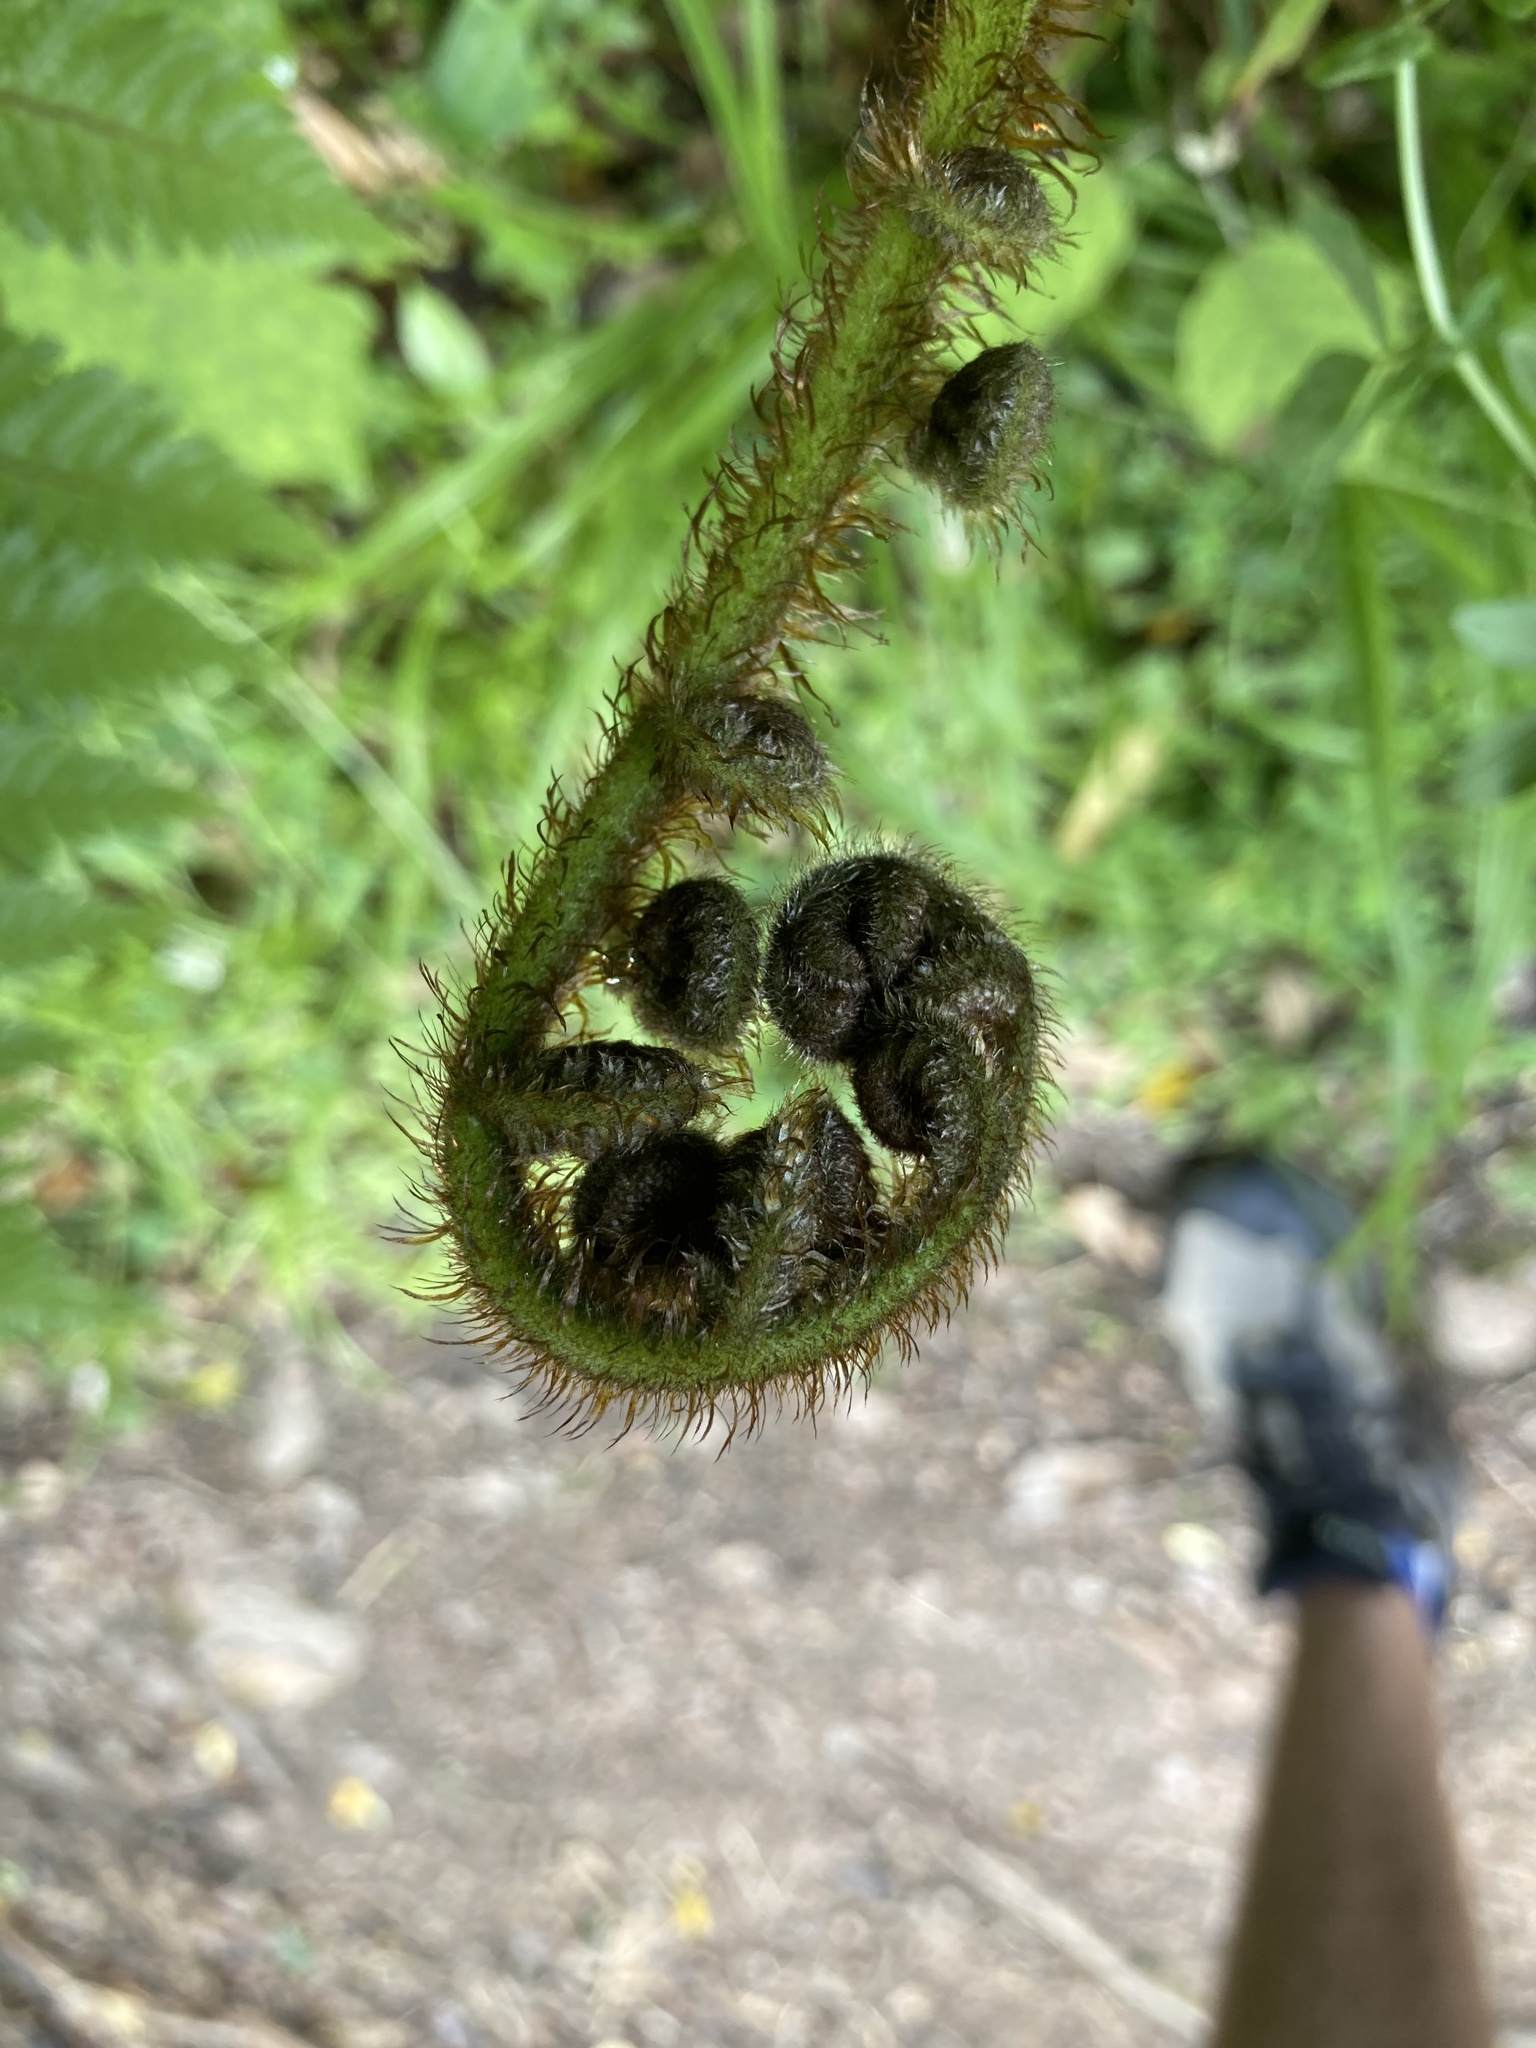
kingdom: Plantae
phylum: Tracheophyta
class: Polypodiopsida
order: Cyatheales
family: Cyatheaceae
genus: Sphaeropteris
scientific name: Sphaeropteris medullaris
